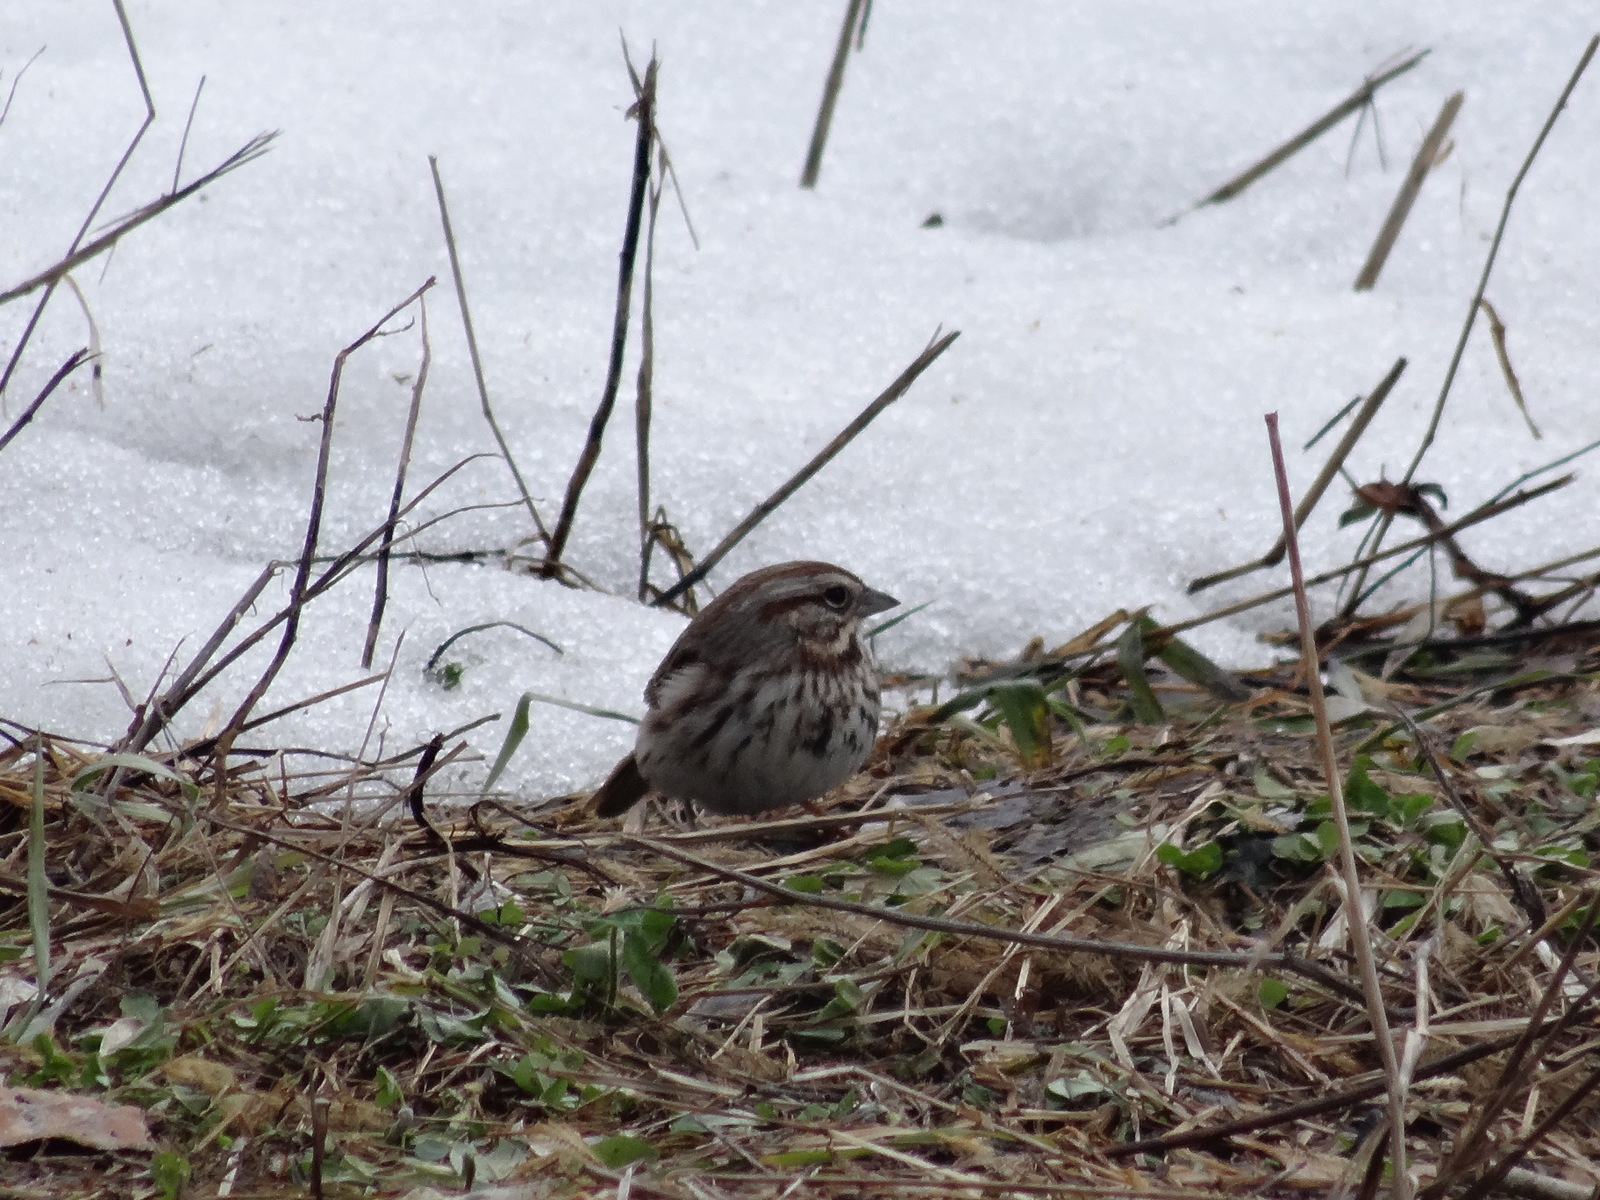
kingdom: Animalia
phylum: Chordata
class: Aves
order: Passeriformes
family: Passerellidae
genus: Melospiza
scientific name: Melospiza melodia
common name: Song sparrow
